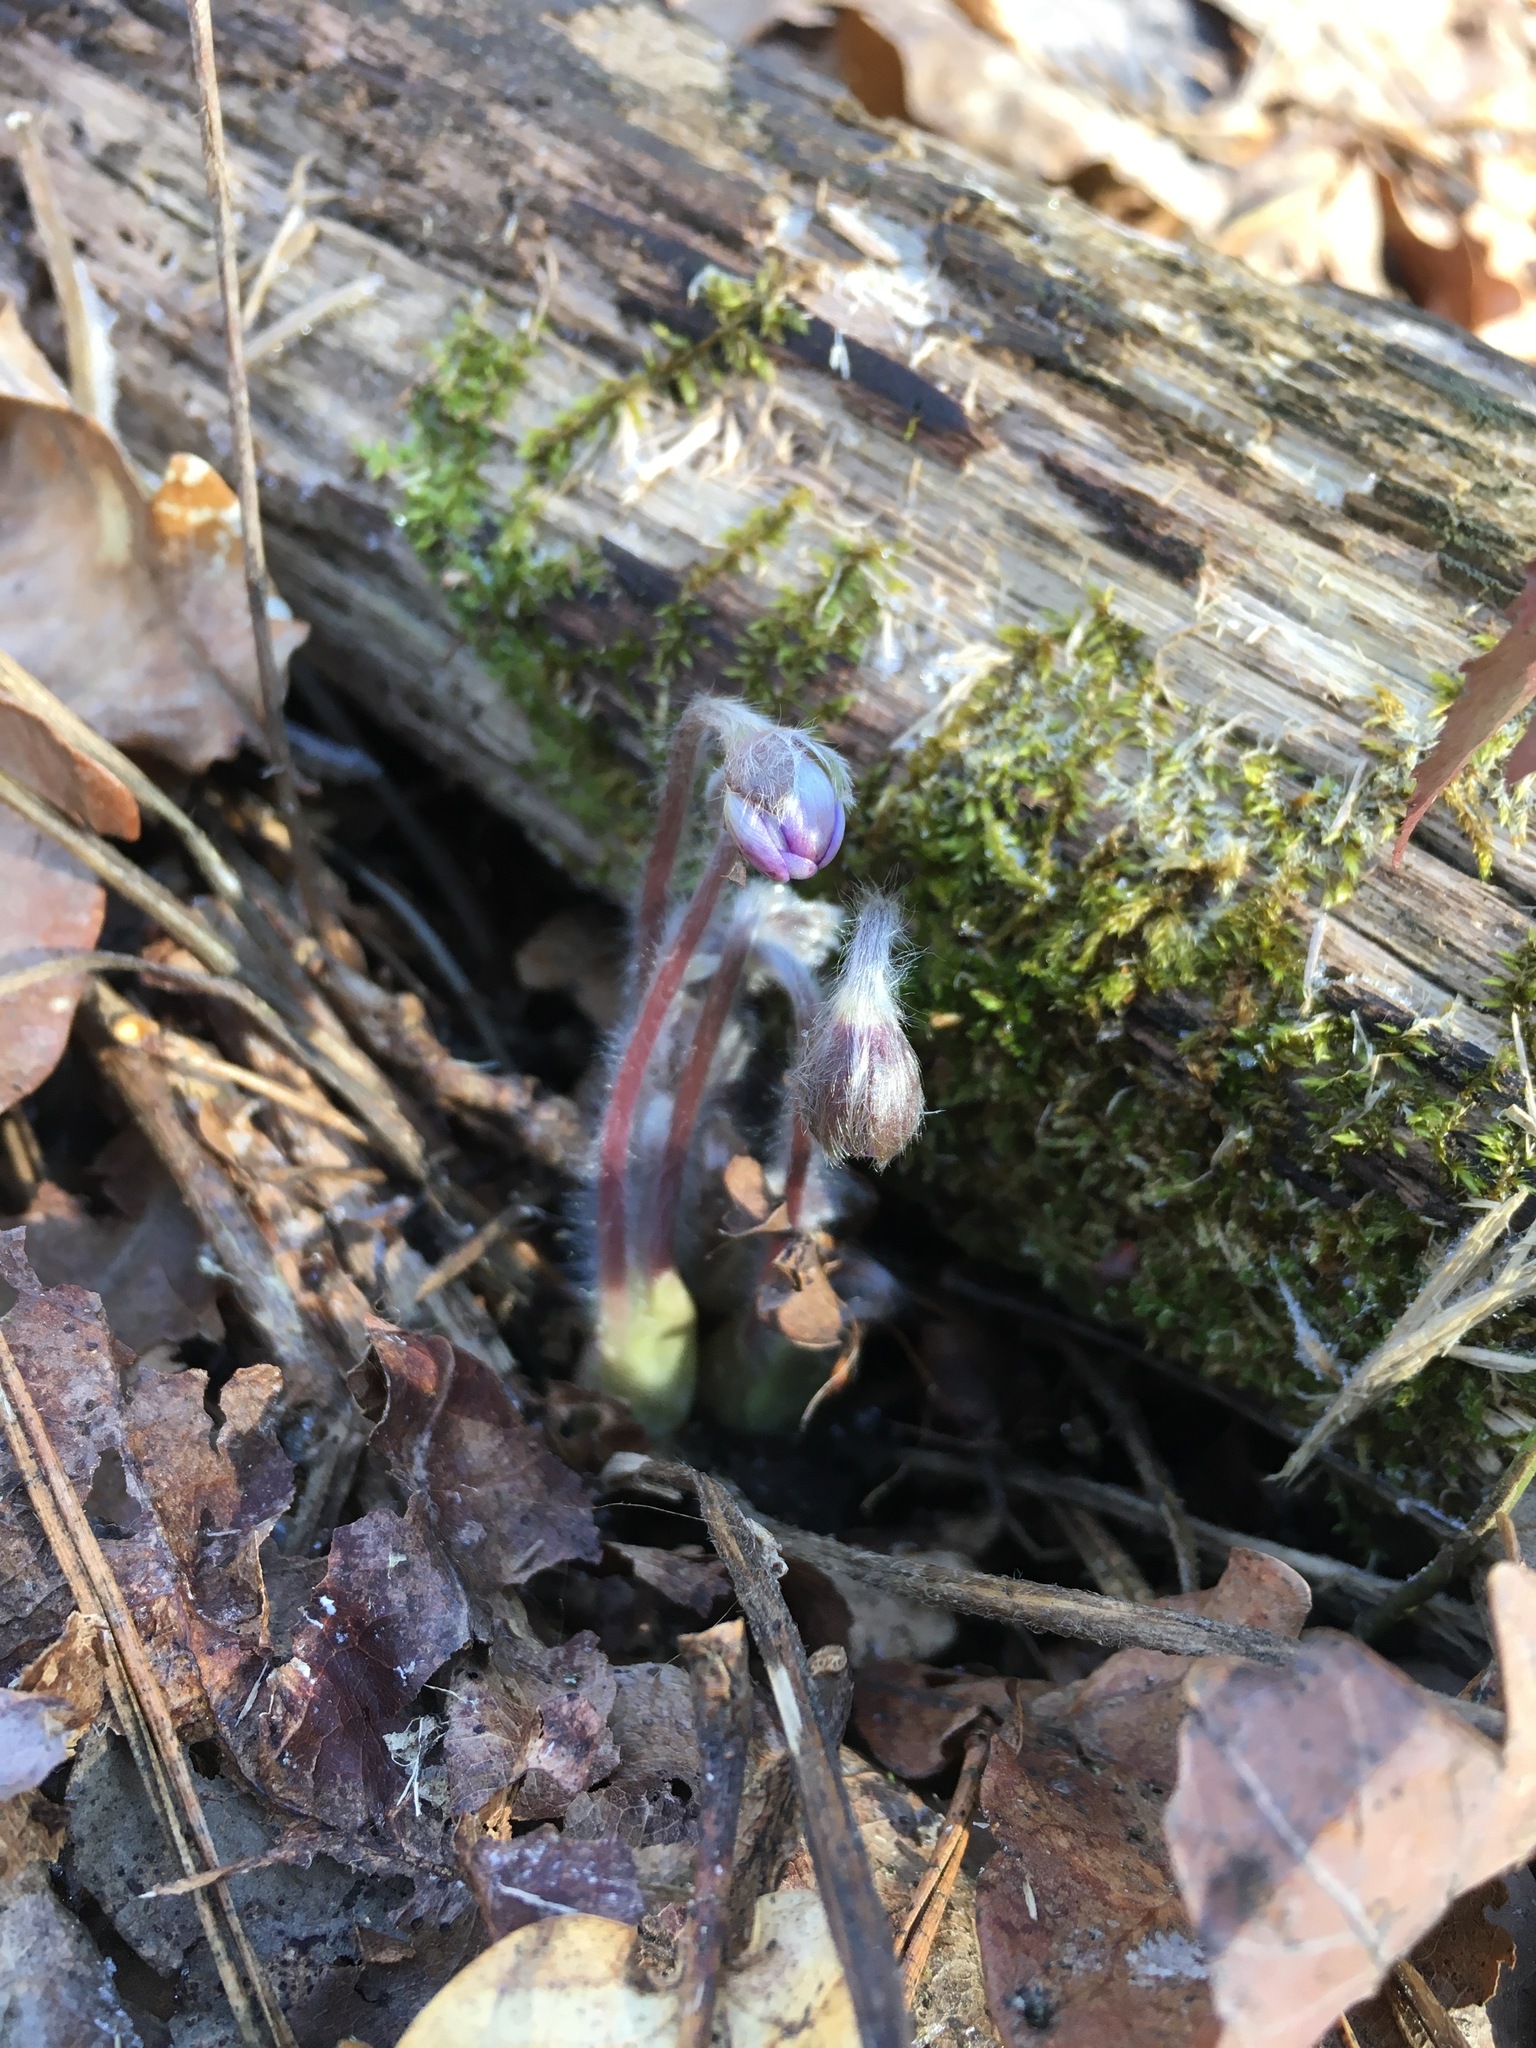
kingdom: Plantae
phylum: Tracheophyta
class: Magnoliopsida
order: Ranunculales
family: Ranunculaceae
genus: Hepatica
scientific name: Hepatica nobilis
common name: Liverleaf
